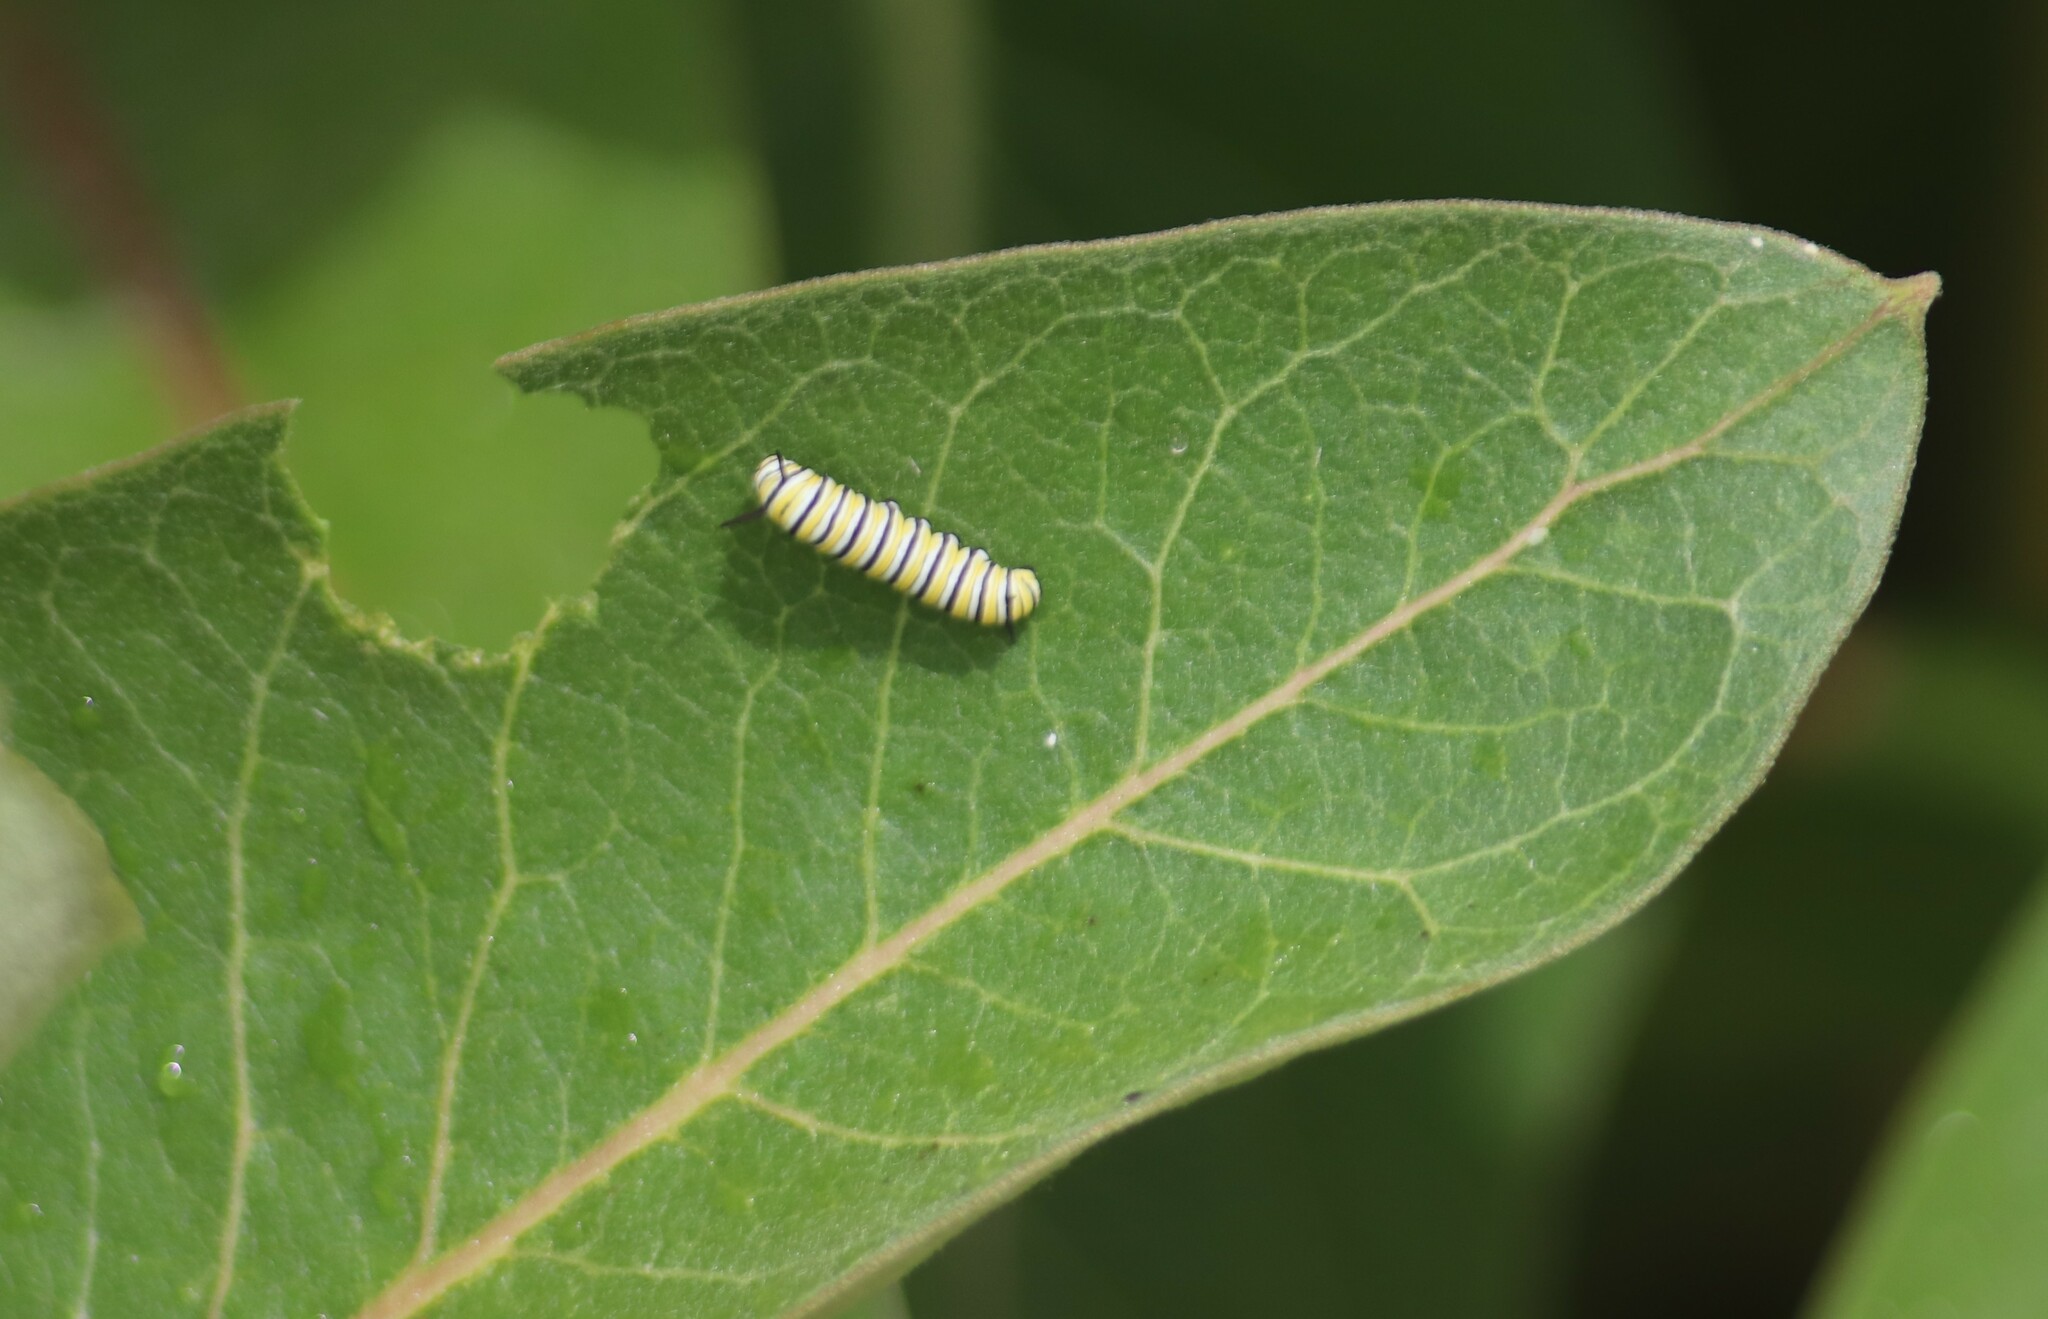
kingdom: Animalia
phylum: Arthropoda
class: Insecta
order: Lepidoptera
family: Nymphalidae
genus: Danaus
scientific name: Danaus plexippus
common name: Monarch
